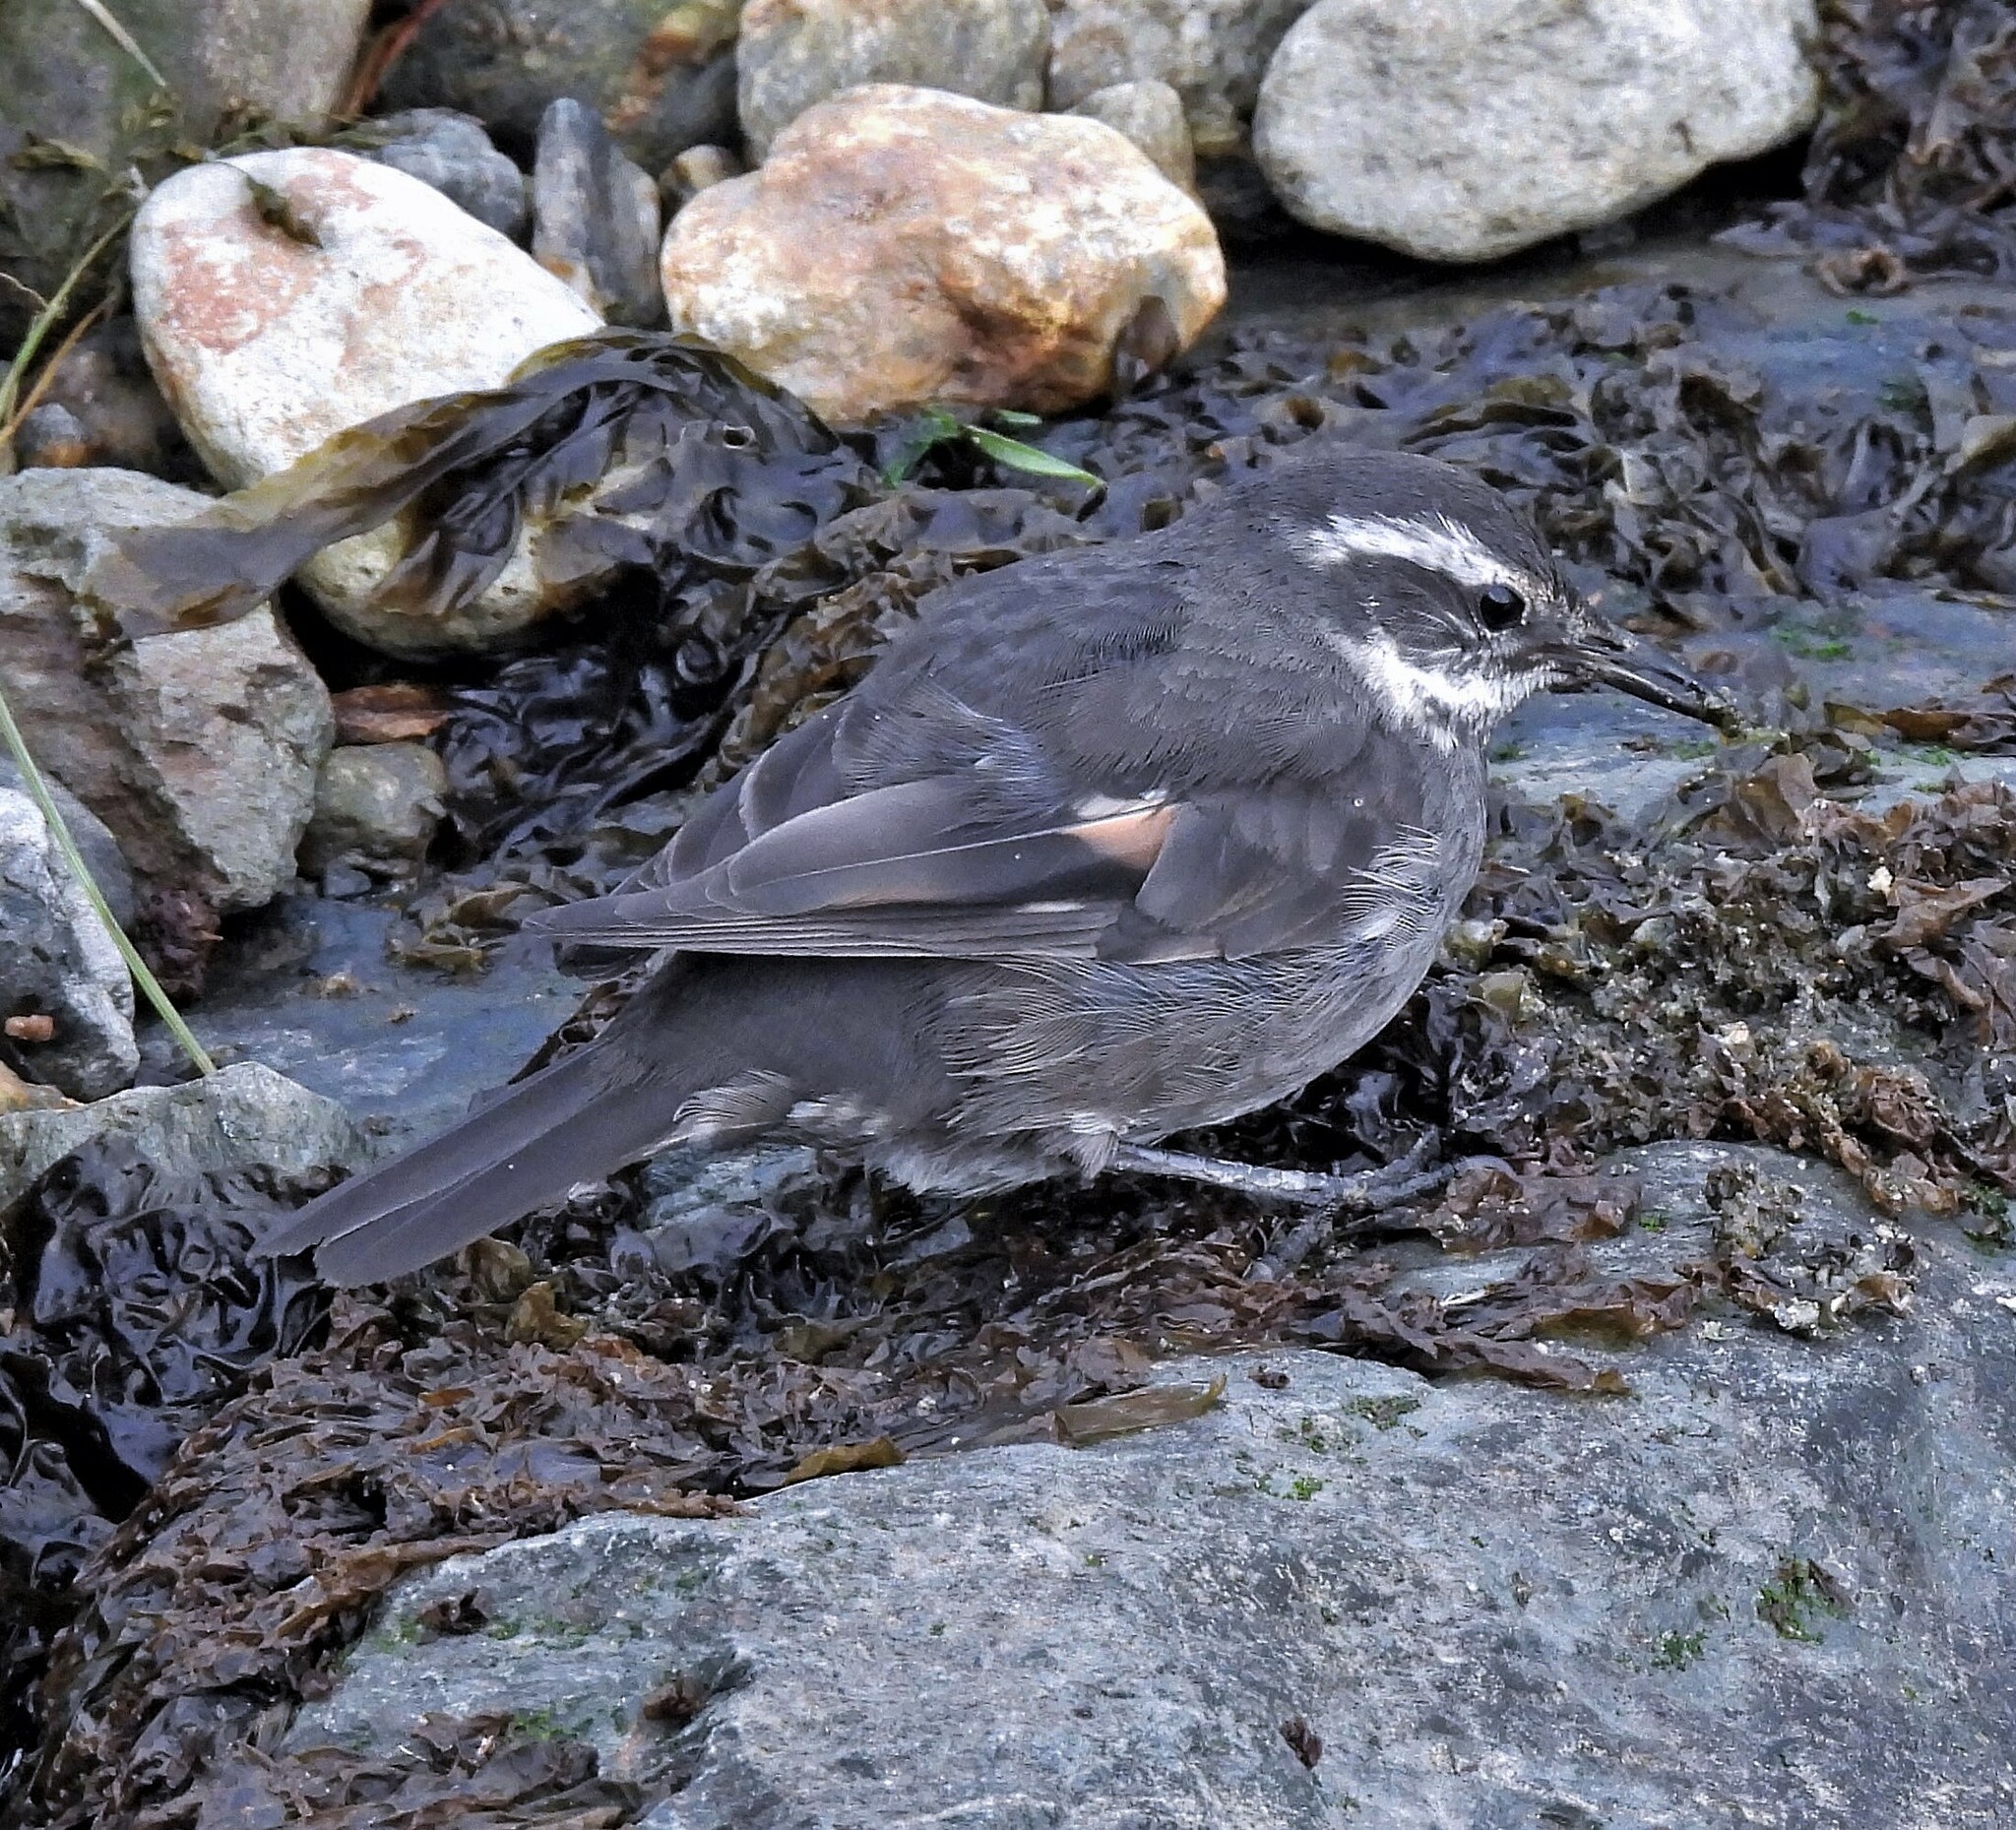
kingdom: Animalia
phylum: Chordata
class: Aves
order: Passeriformes
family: Furnariidae
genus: Cinclodes
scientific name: Cinclodes patagonicus
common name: Dark-bellied cinclodes
